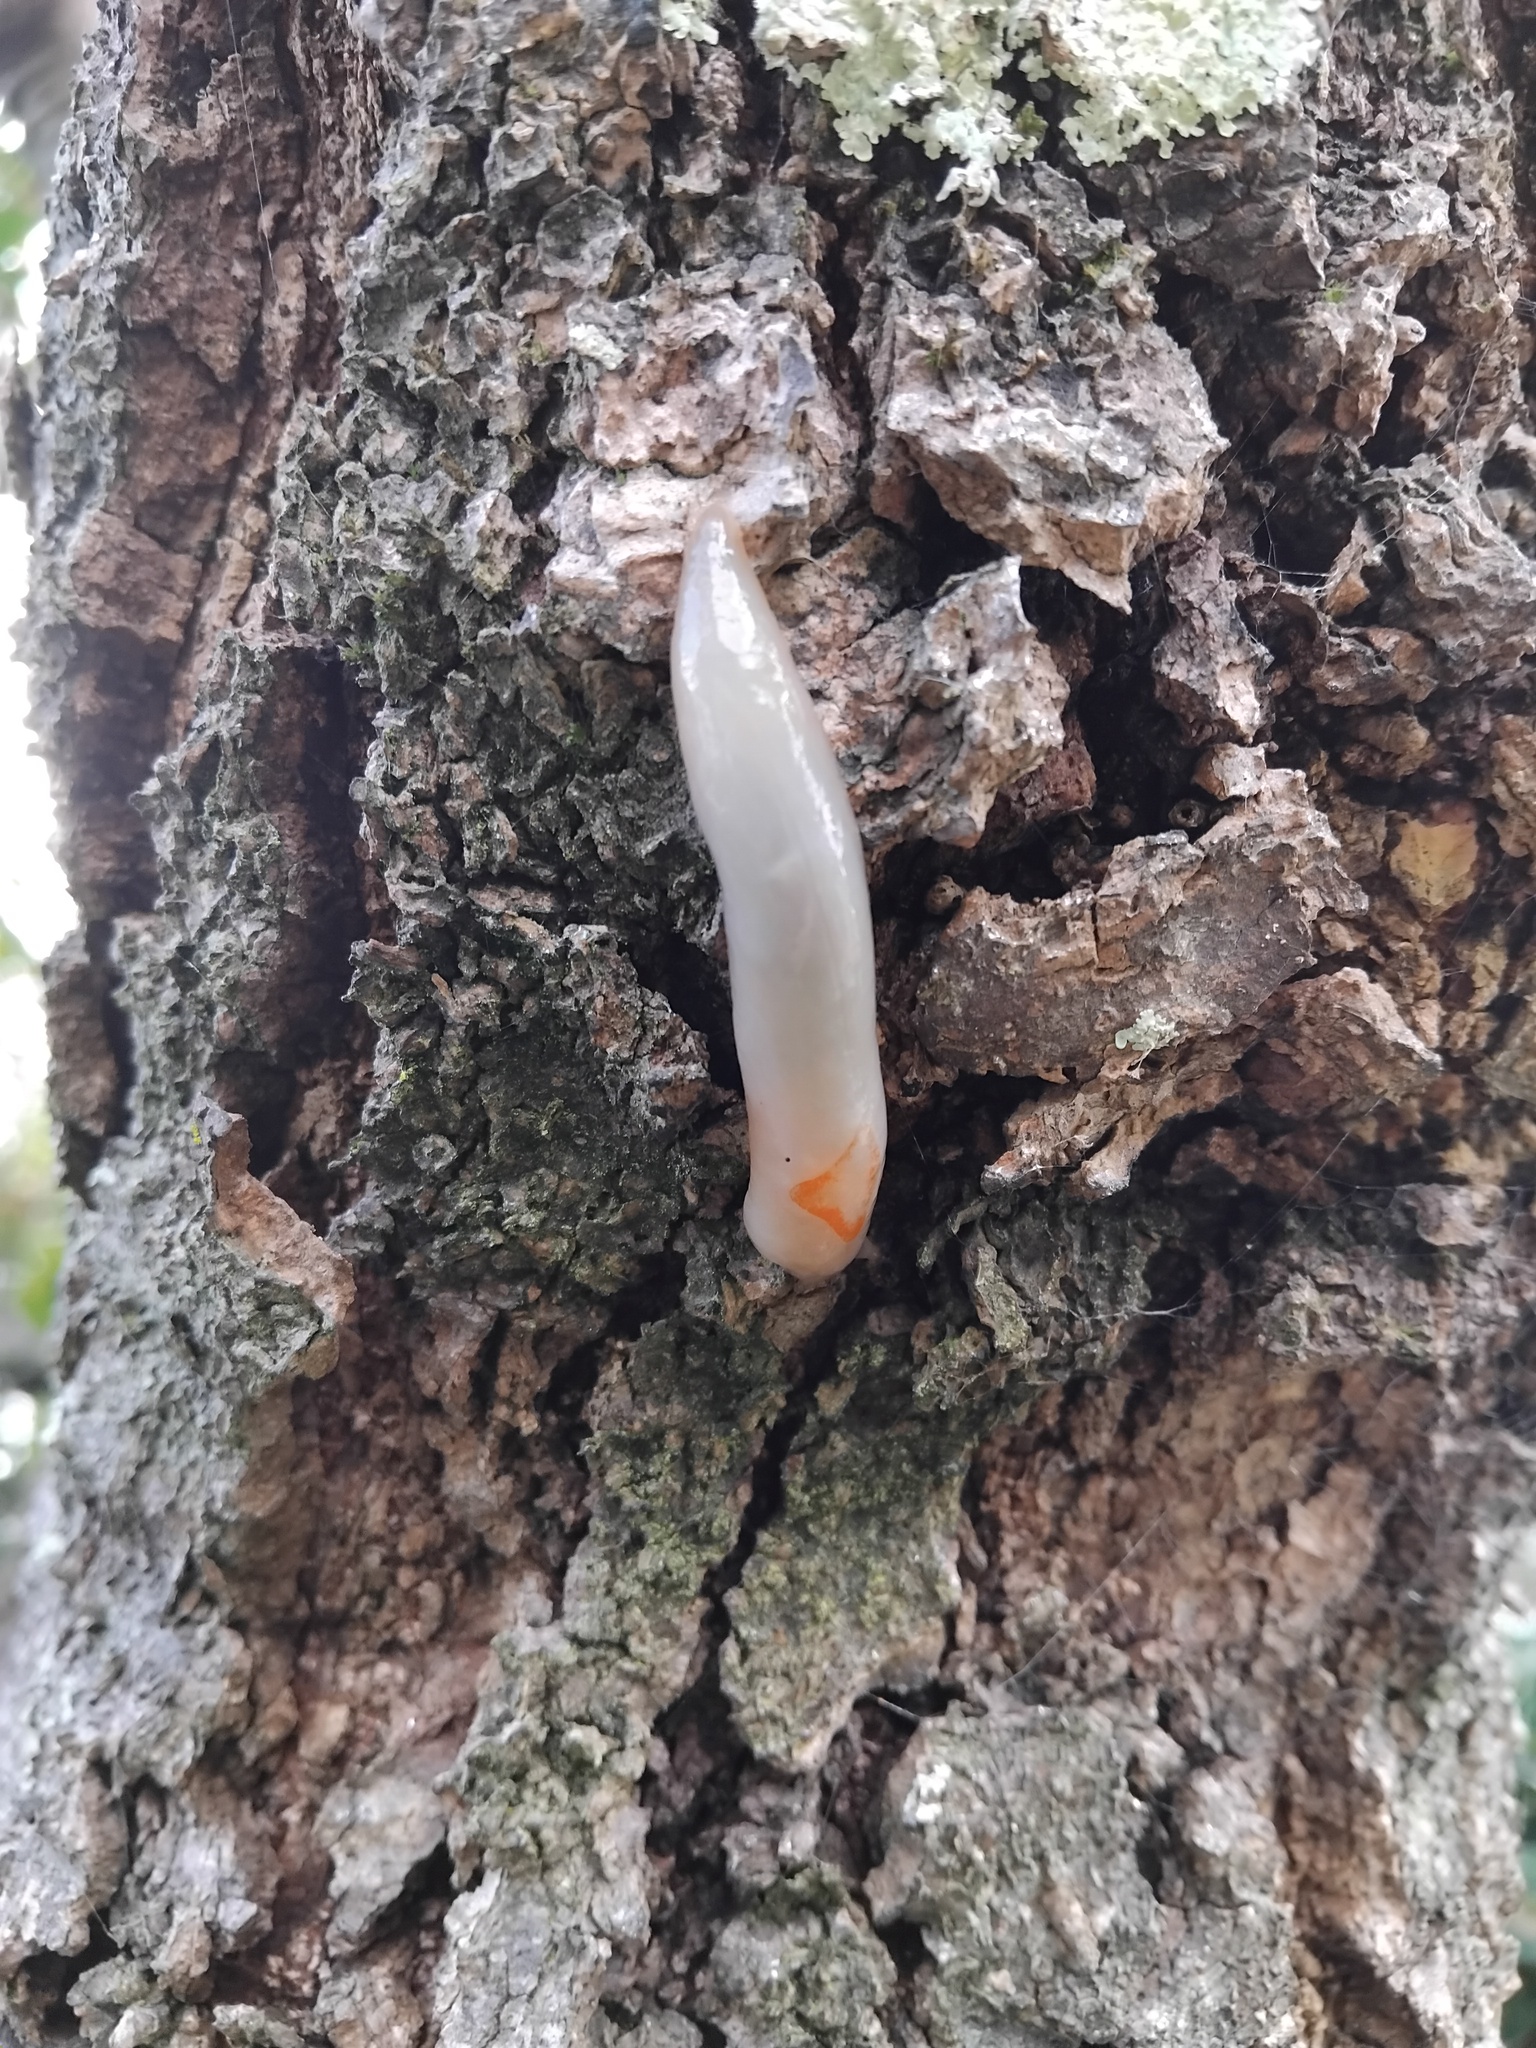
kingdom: Animalia
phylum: Mollusca
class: Gastropoda
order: Stylommatophora
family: Athoracophoridae
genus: Triboniophorus
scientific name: Triboniophorus graeffei
